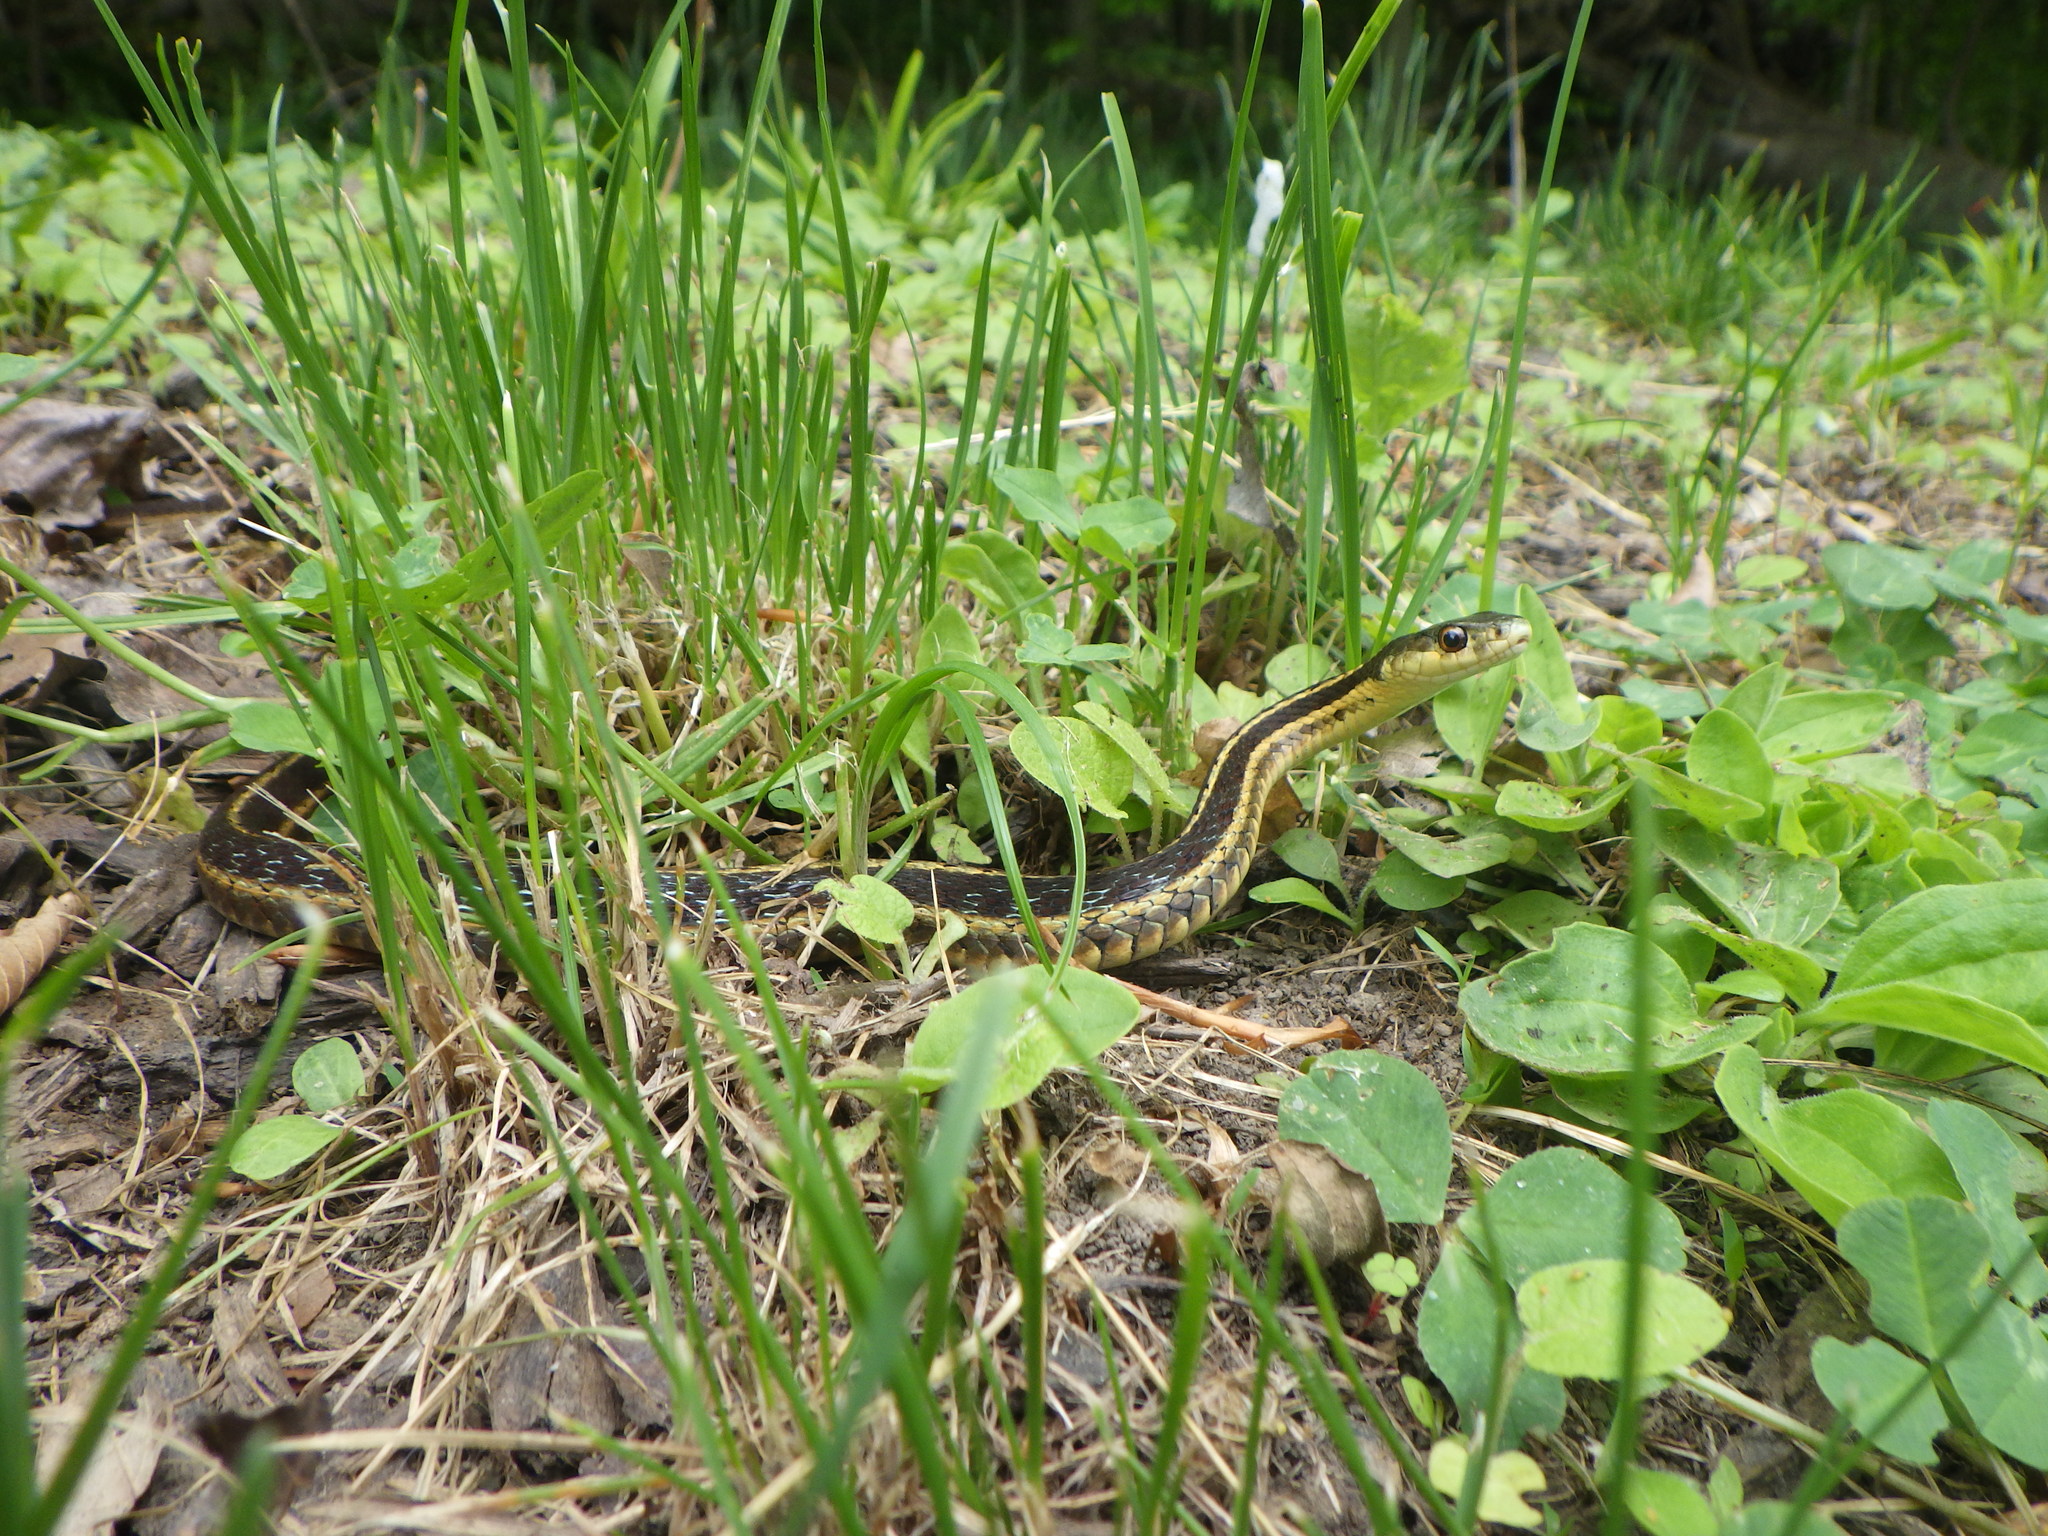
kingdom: Animalia
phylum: Chordata
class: Squamata
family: Colubridae
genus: Thamnophis
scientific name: Thamnophis sirtalis
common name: Common garter snake
